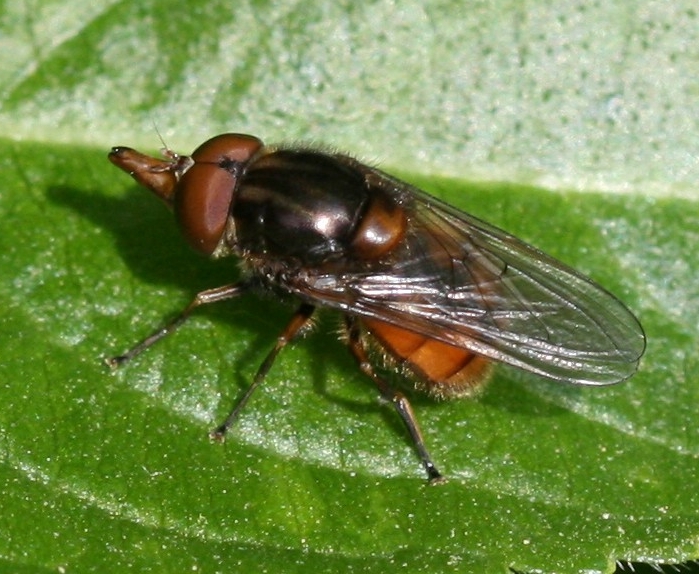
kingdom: Animalia
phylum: Arthropoda
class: Insecta
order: Diptera
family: Syrphidae
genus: Rhingia
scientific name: Rhingia campestris
